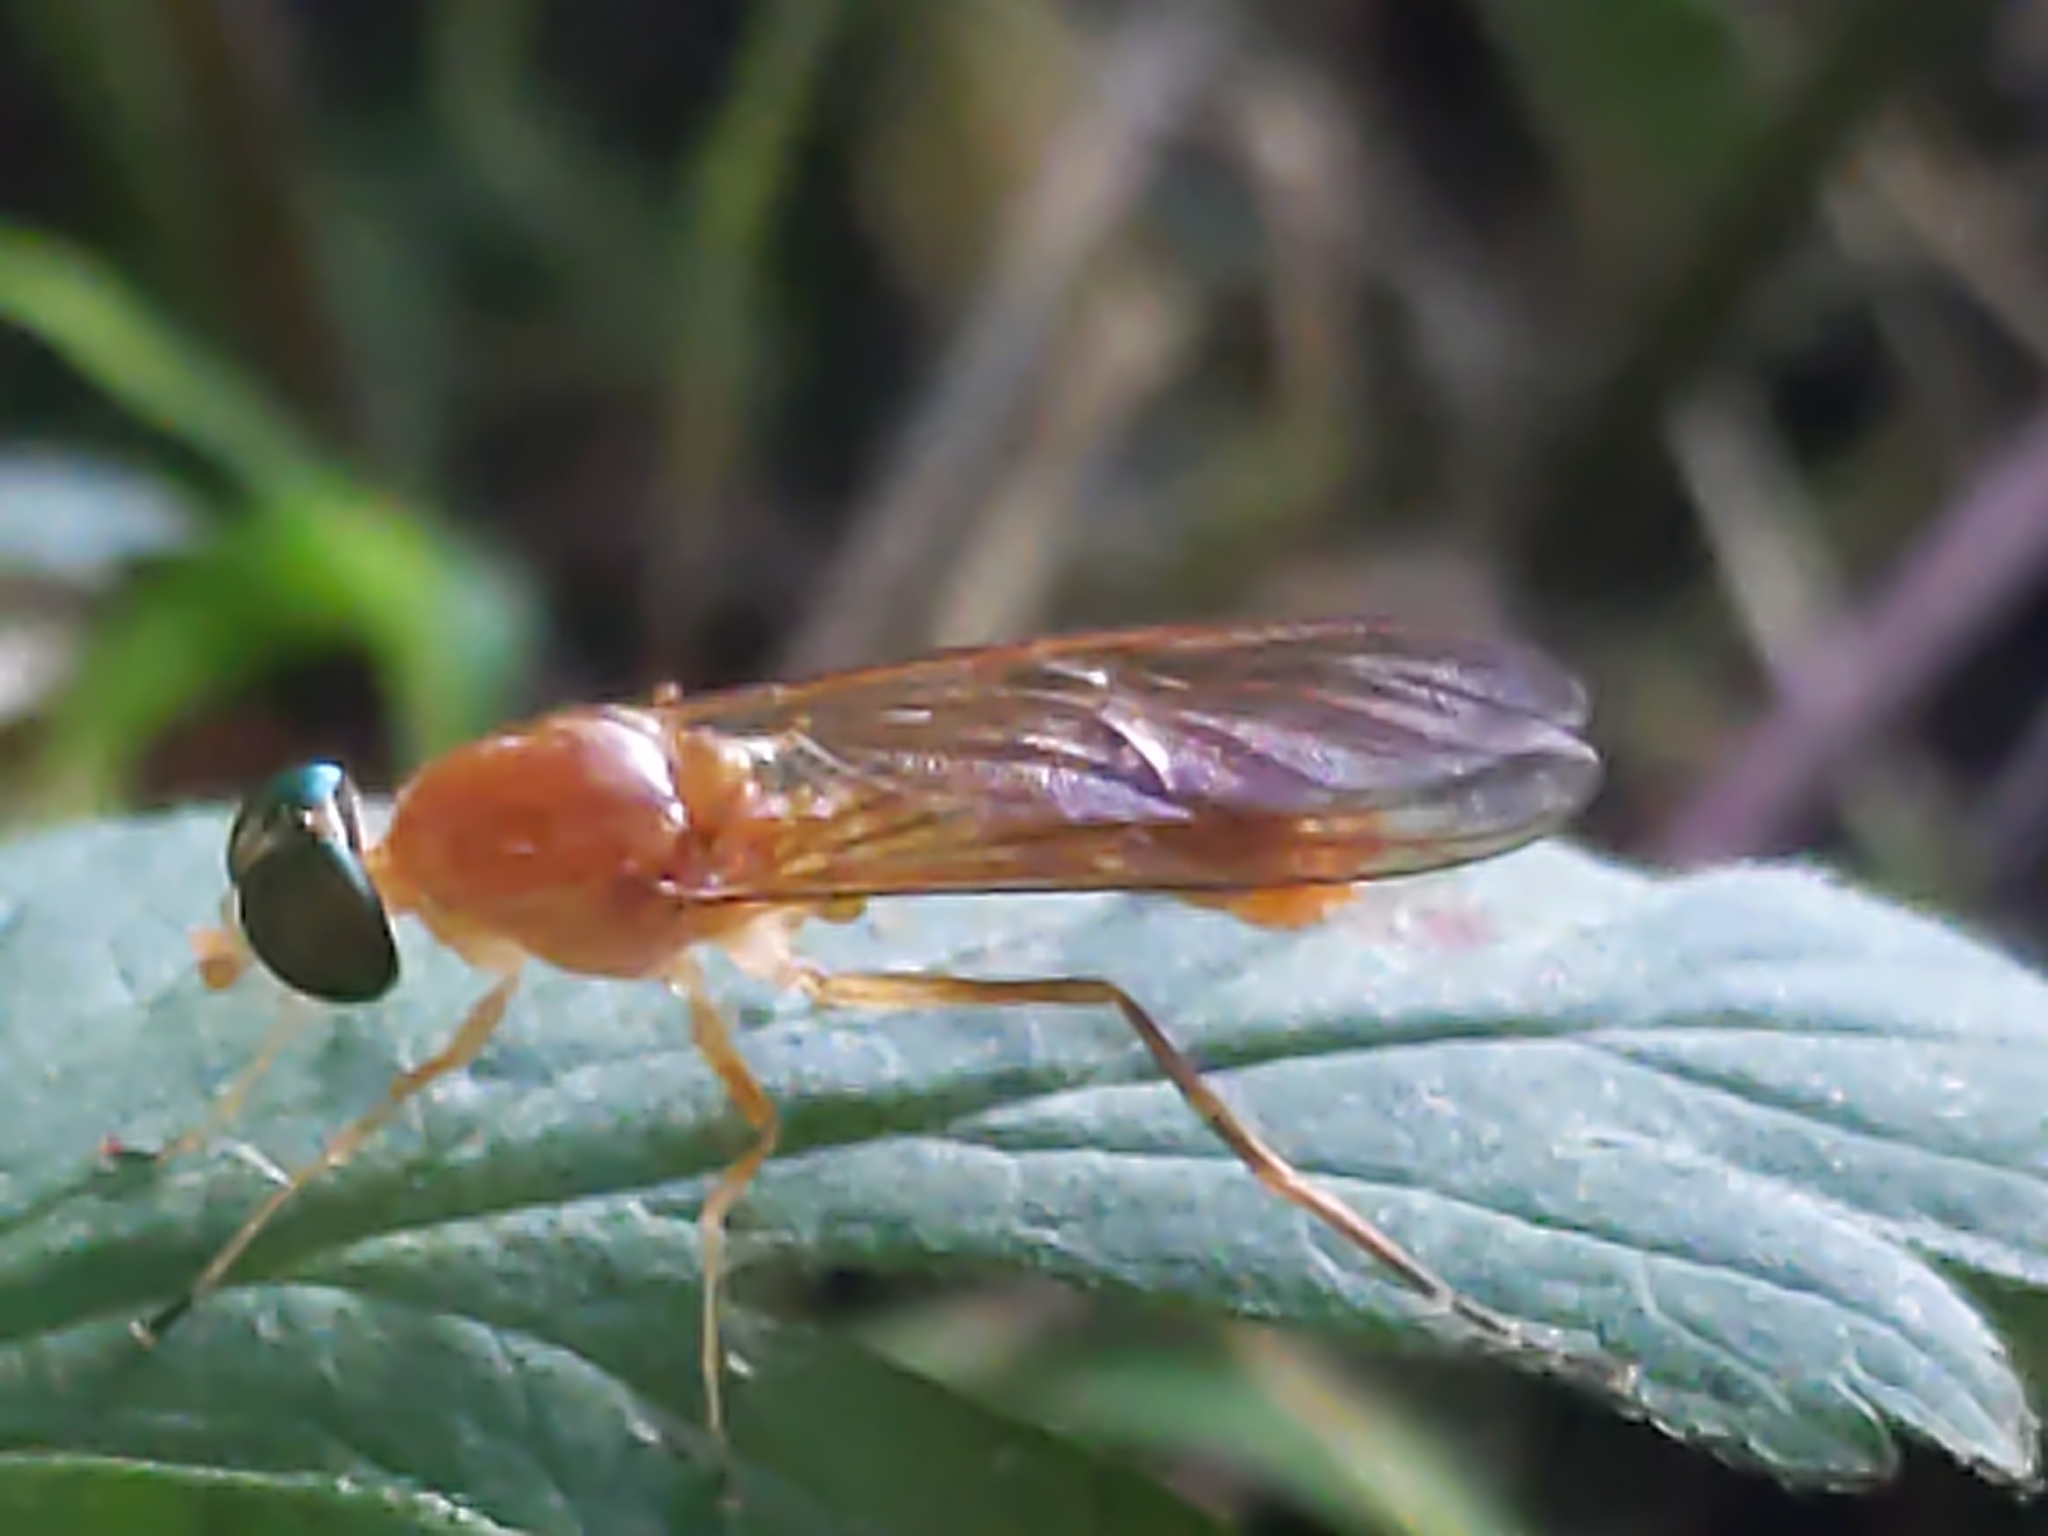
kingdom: Animalia
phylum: Arthropoda
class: Insecta
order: Diptera
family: Stratiomyidae
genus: Ptecticus
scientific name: Ptecticus trivittatus
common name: Compost fly
